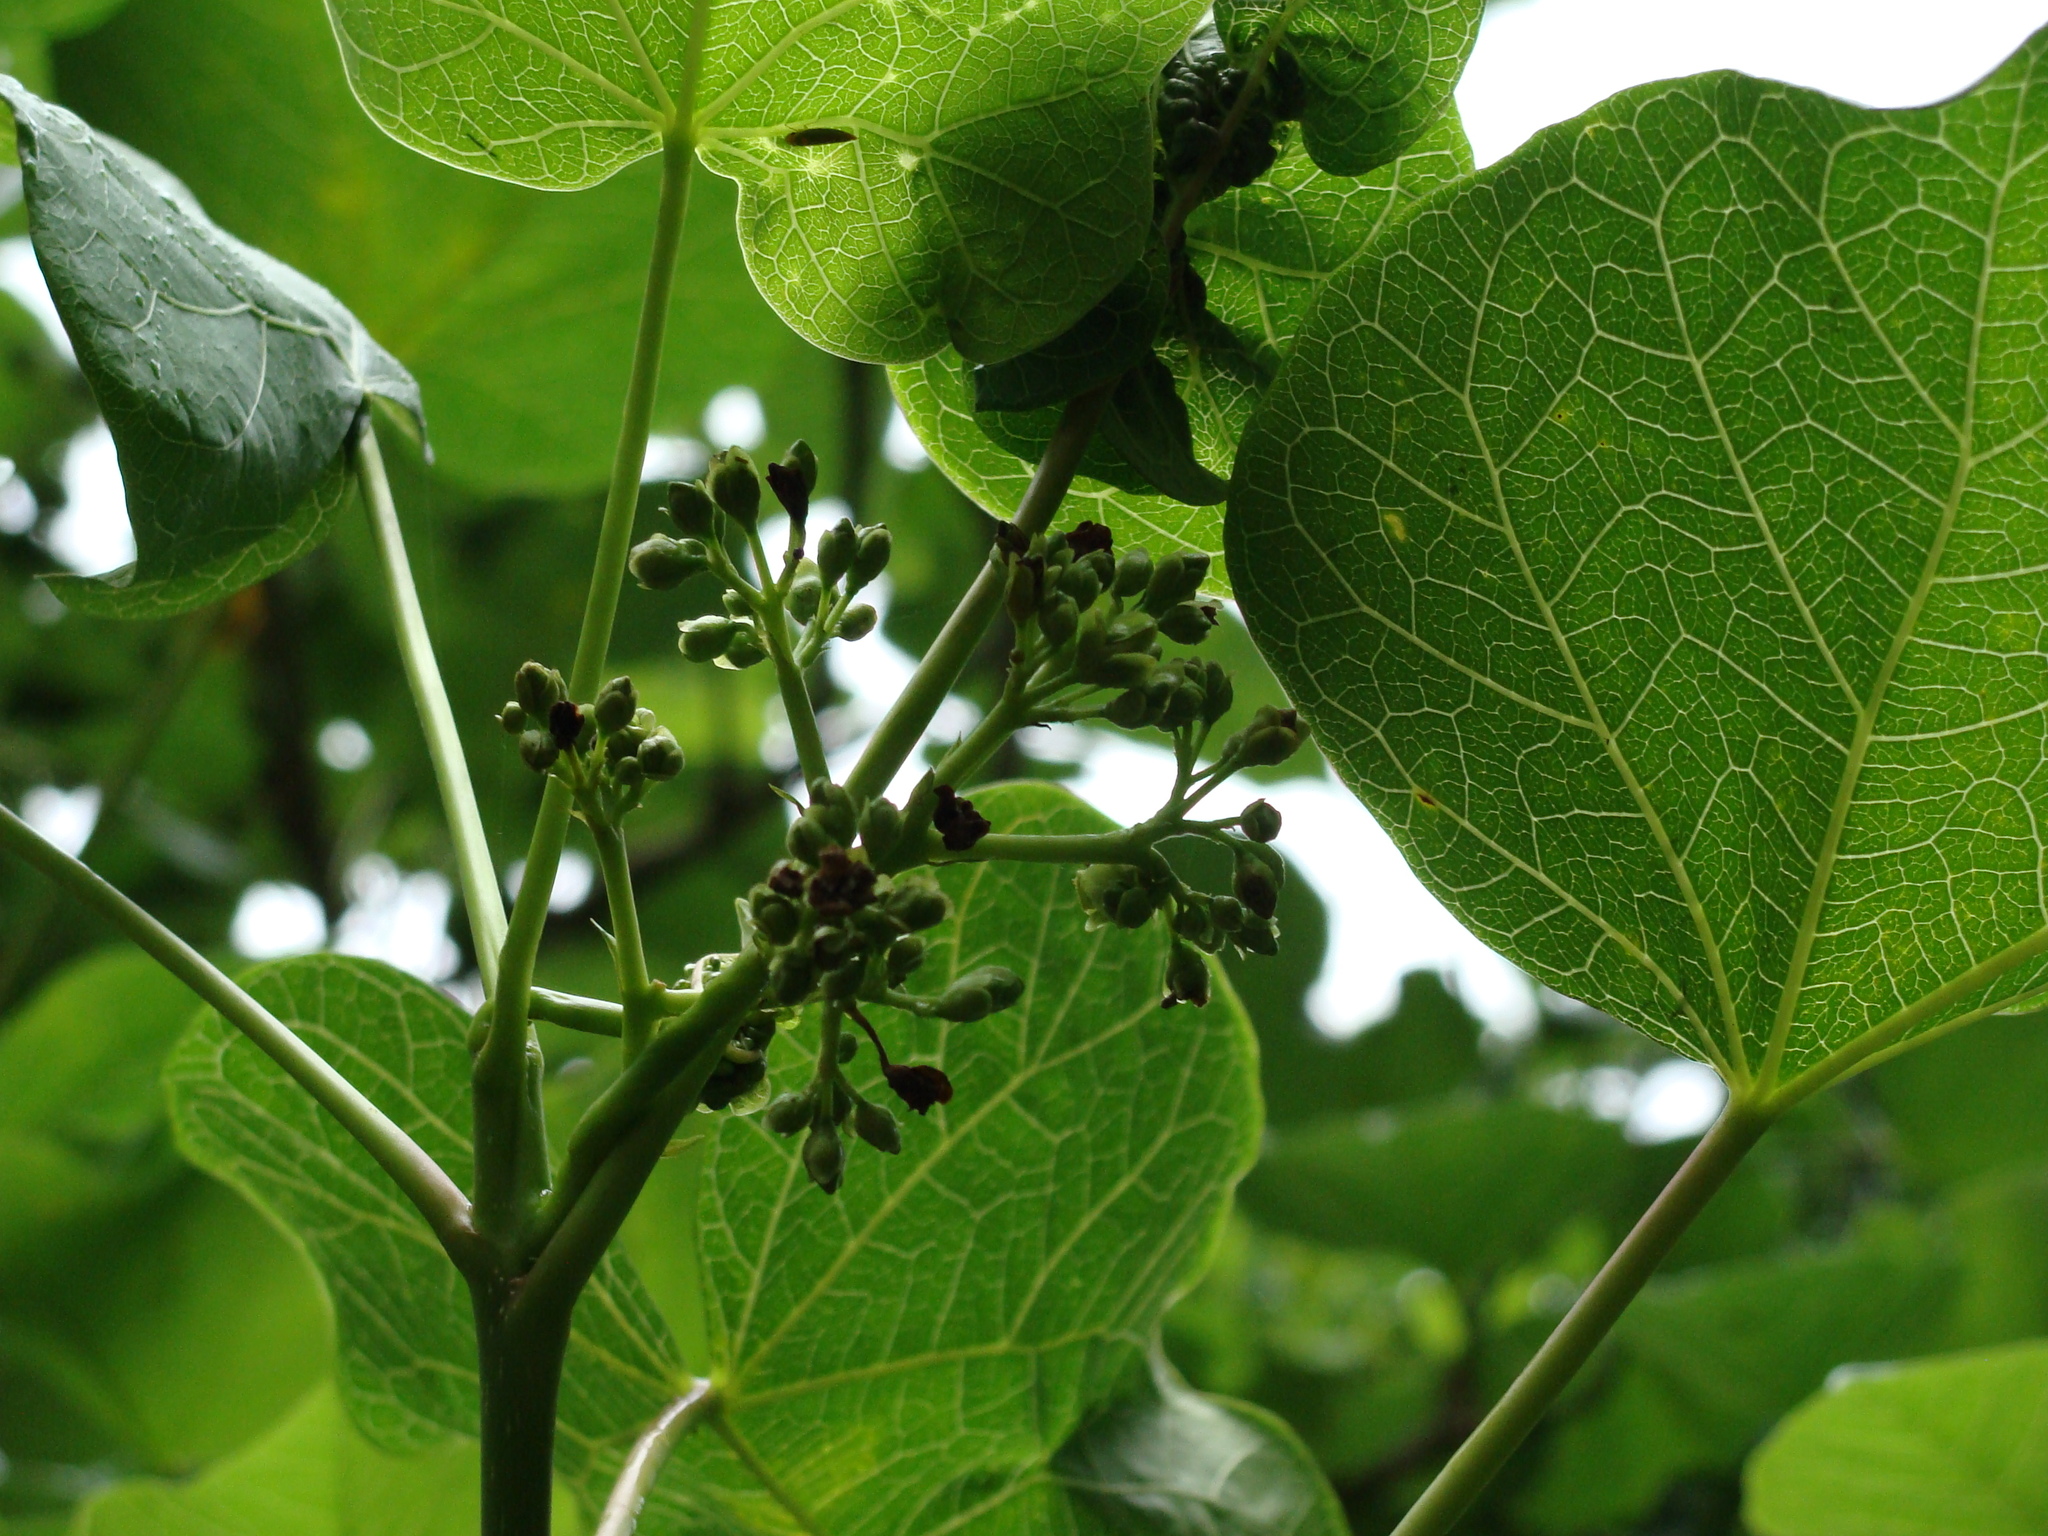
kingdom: Plantae
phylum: Tracheophyta
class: Magnoliopsida
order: Malpighiales
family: Euphorbiaceae
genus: Jatropha
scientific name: Jatropha curcas
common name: Barbados nut
